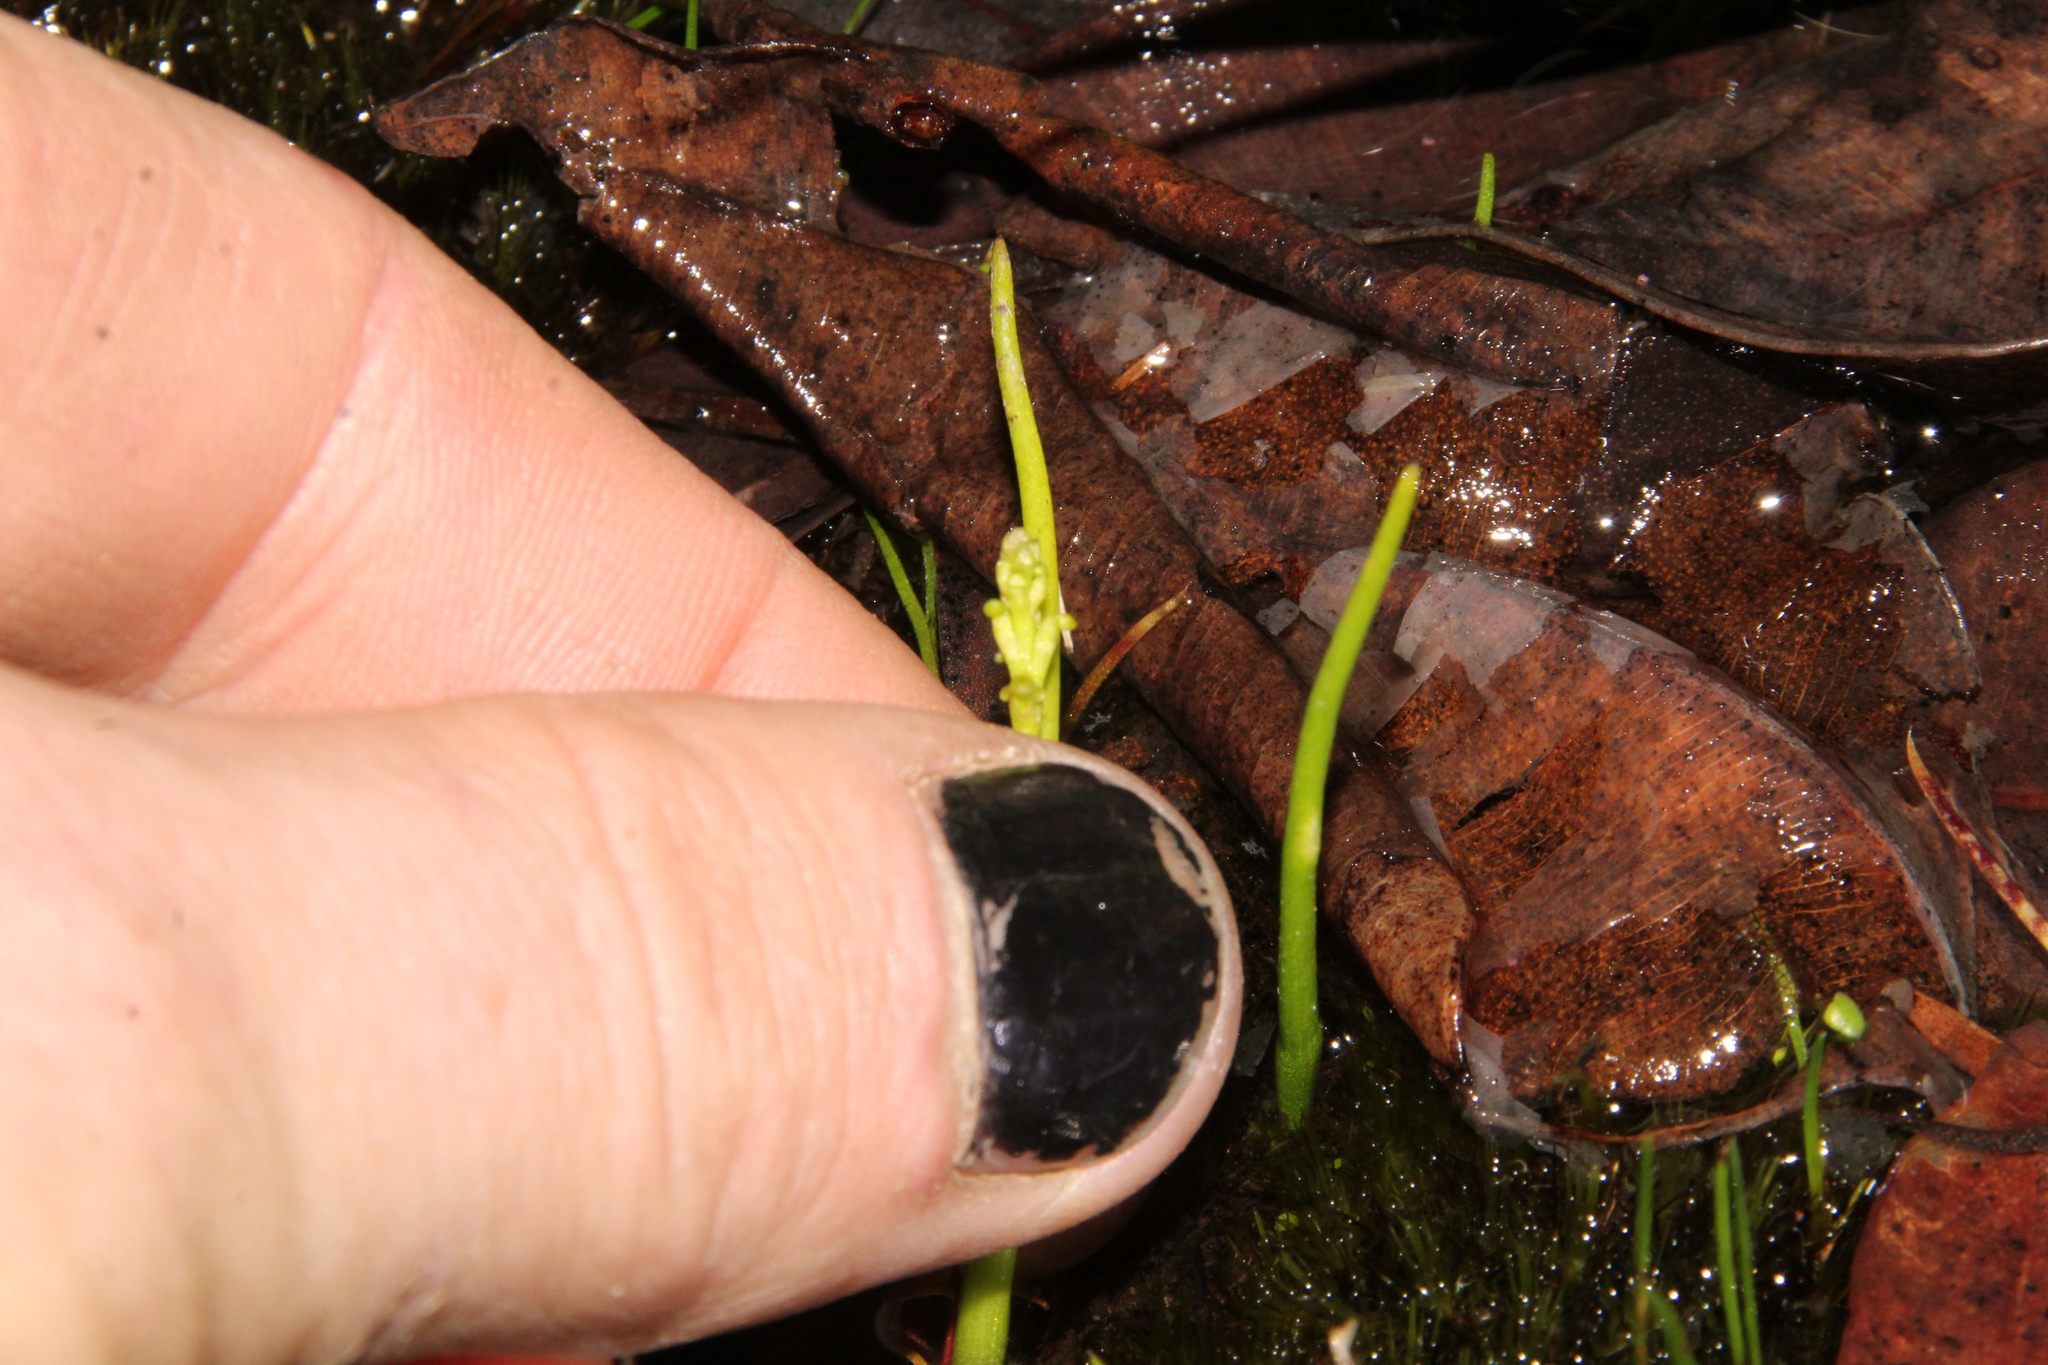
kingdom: Plantae
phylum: Tracheophyta
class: Liliopsida
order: Asparagales
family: Orchidaceae
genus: Microtis
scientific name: Microtis atrata
